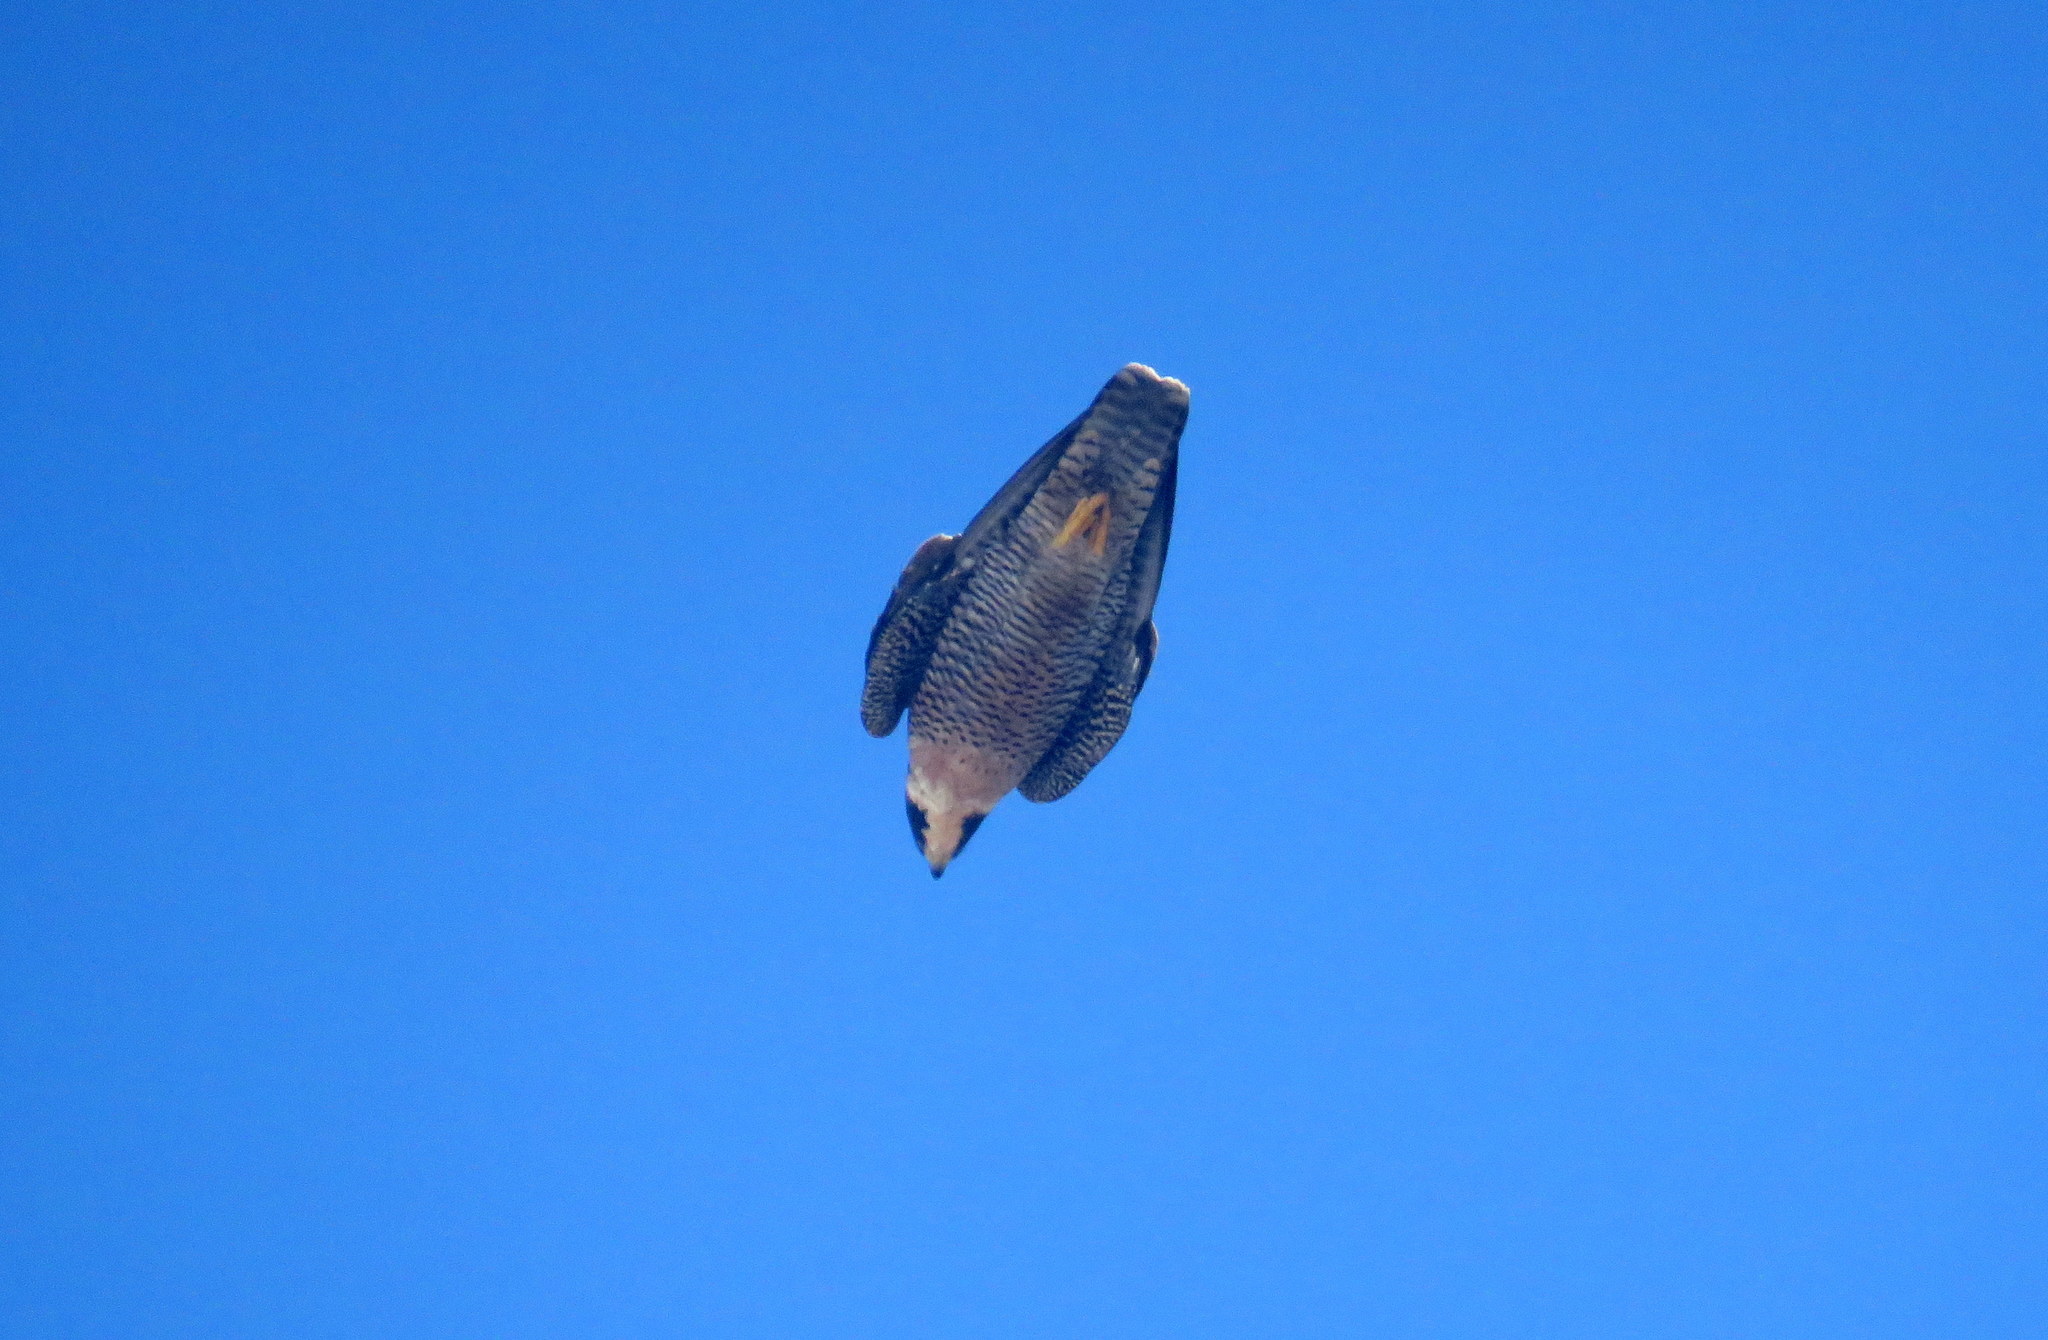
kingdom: Animalia
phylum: Chordata
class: Aves
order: Falconiformes
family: Falconidae
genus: Falco
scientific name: Falco peregrinus
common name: Peregrine falcon
